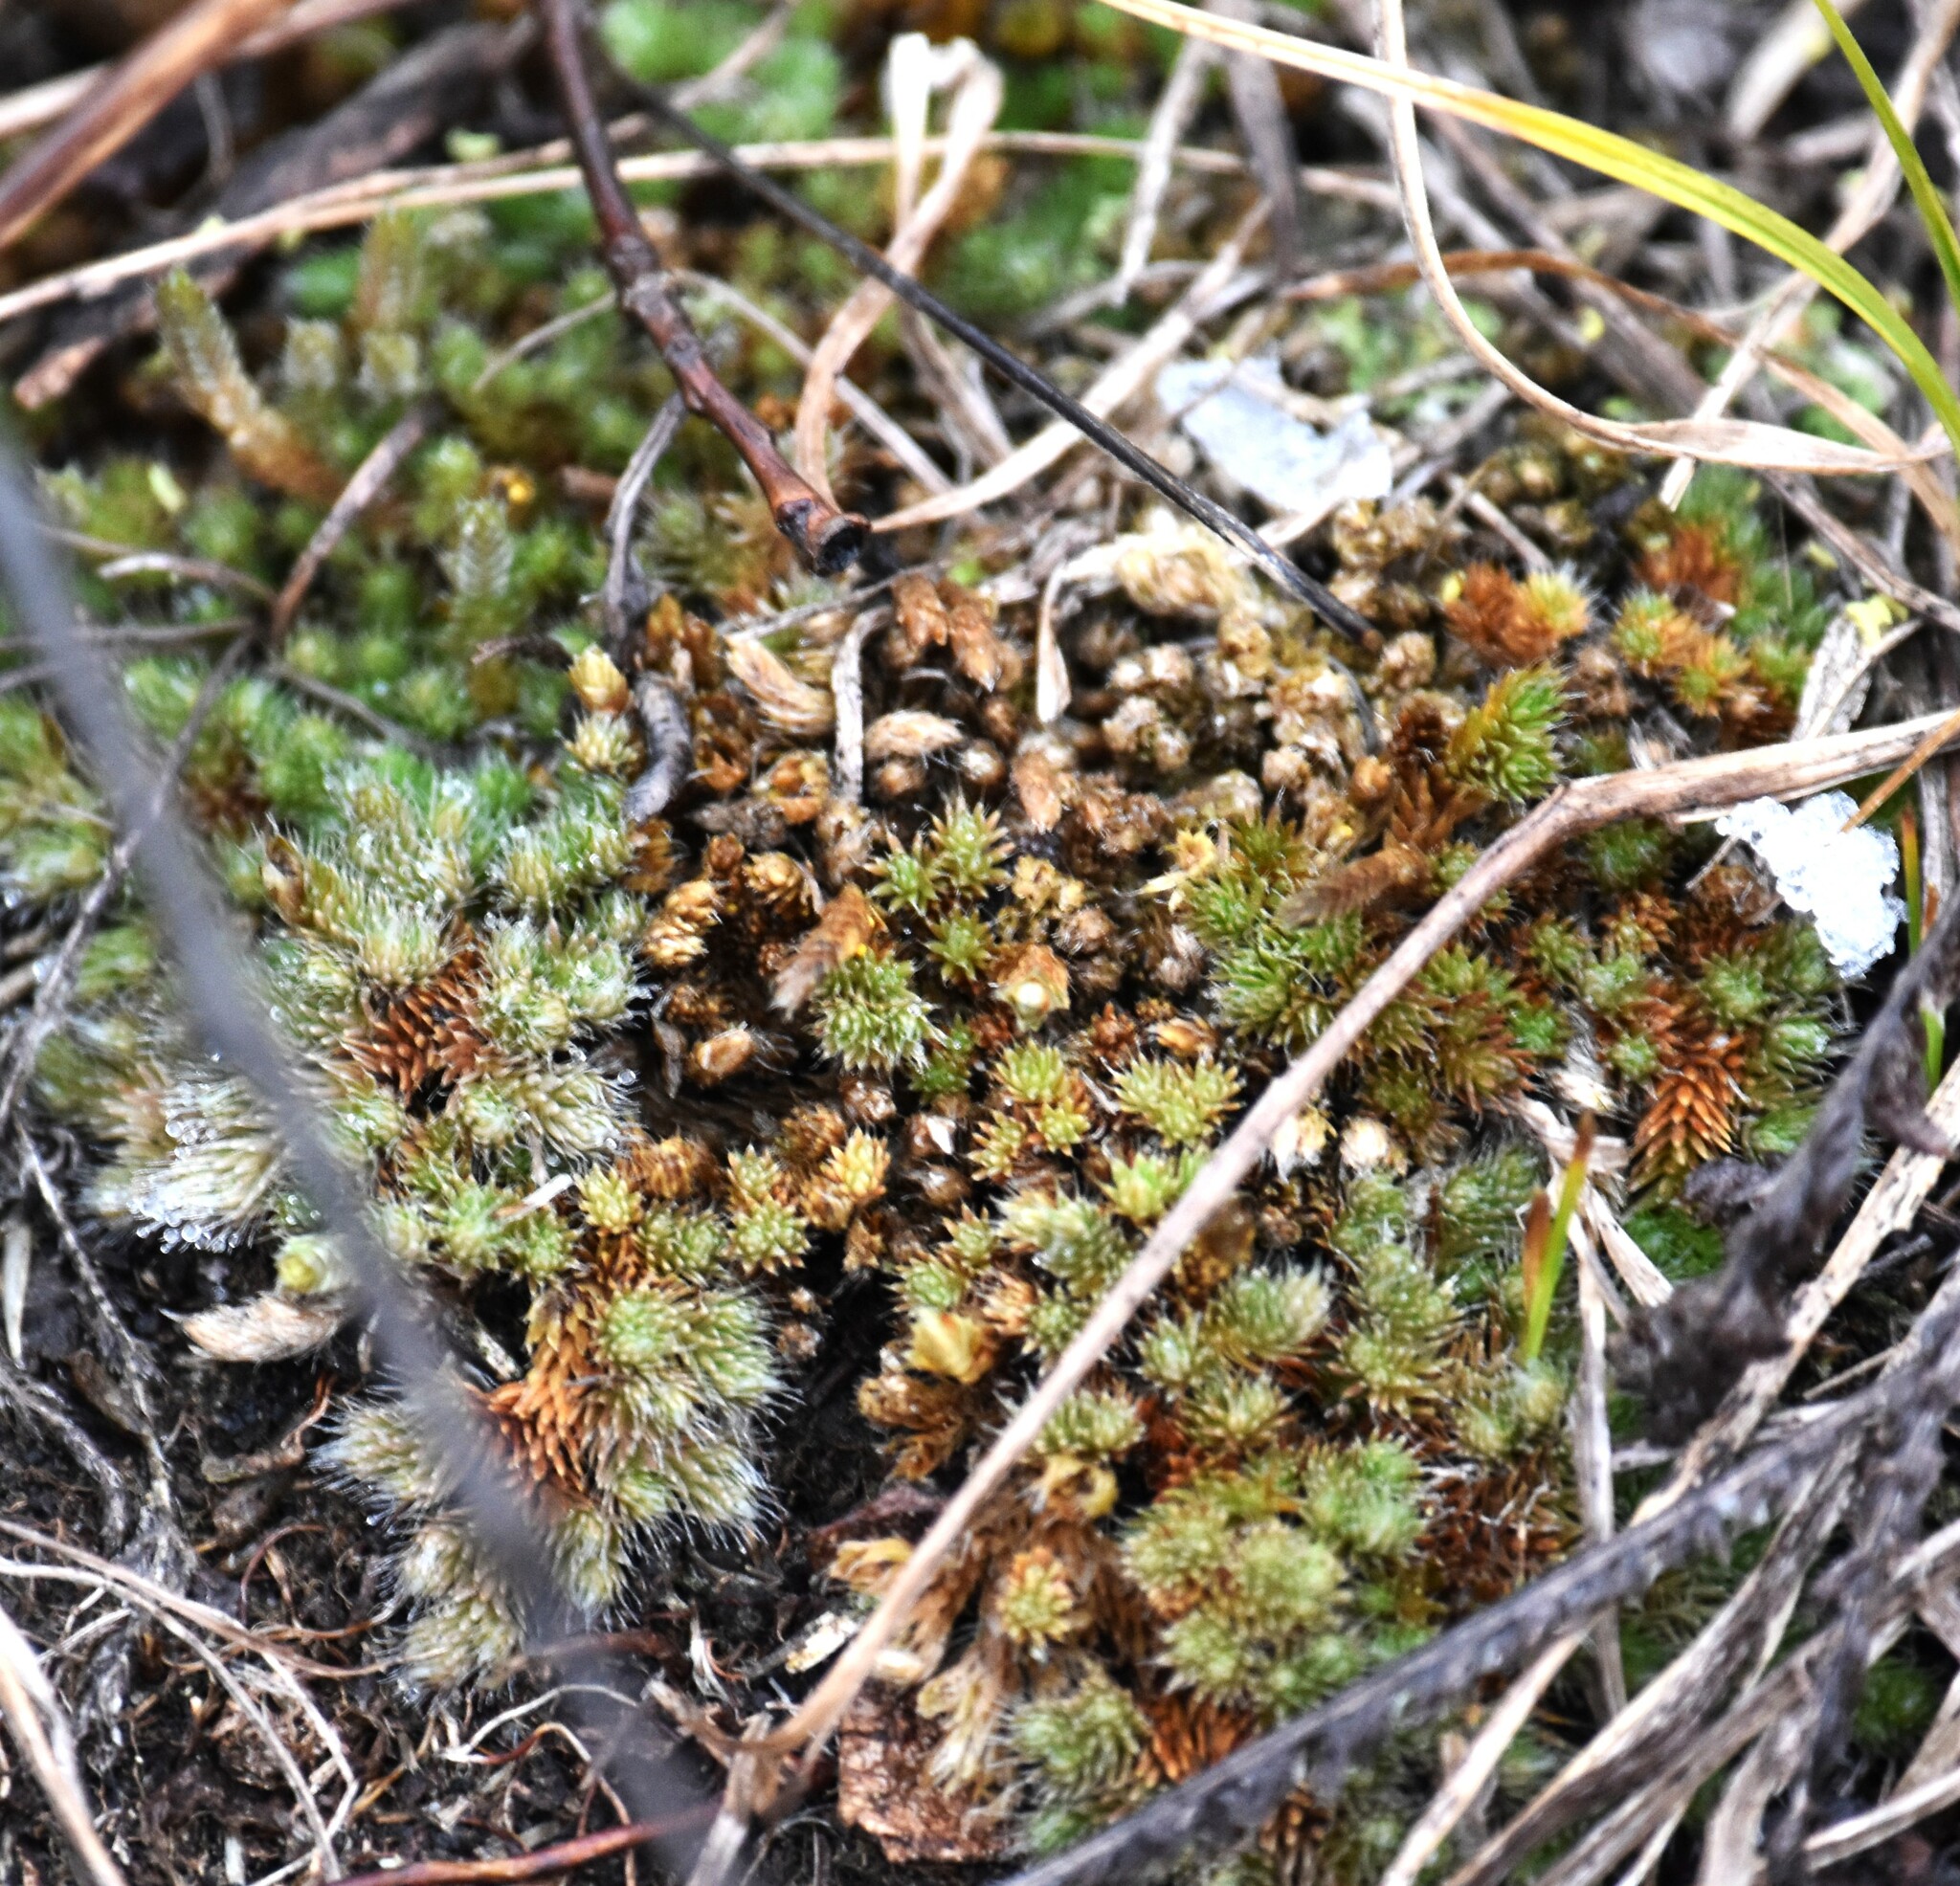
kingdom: Plantae
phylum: Tracheophyta
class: Lycopodiopsida
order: Selaginellales
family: Selaginellaceae
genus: Selaginella
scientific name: Selaginella densa
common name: Mountain spike-moss
